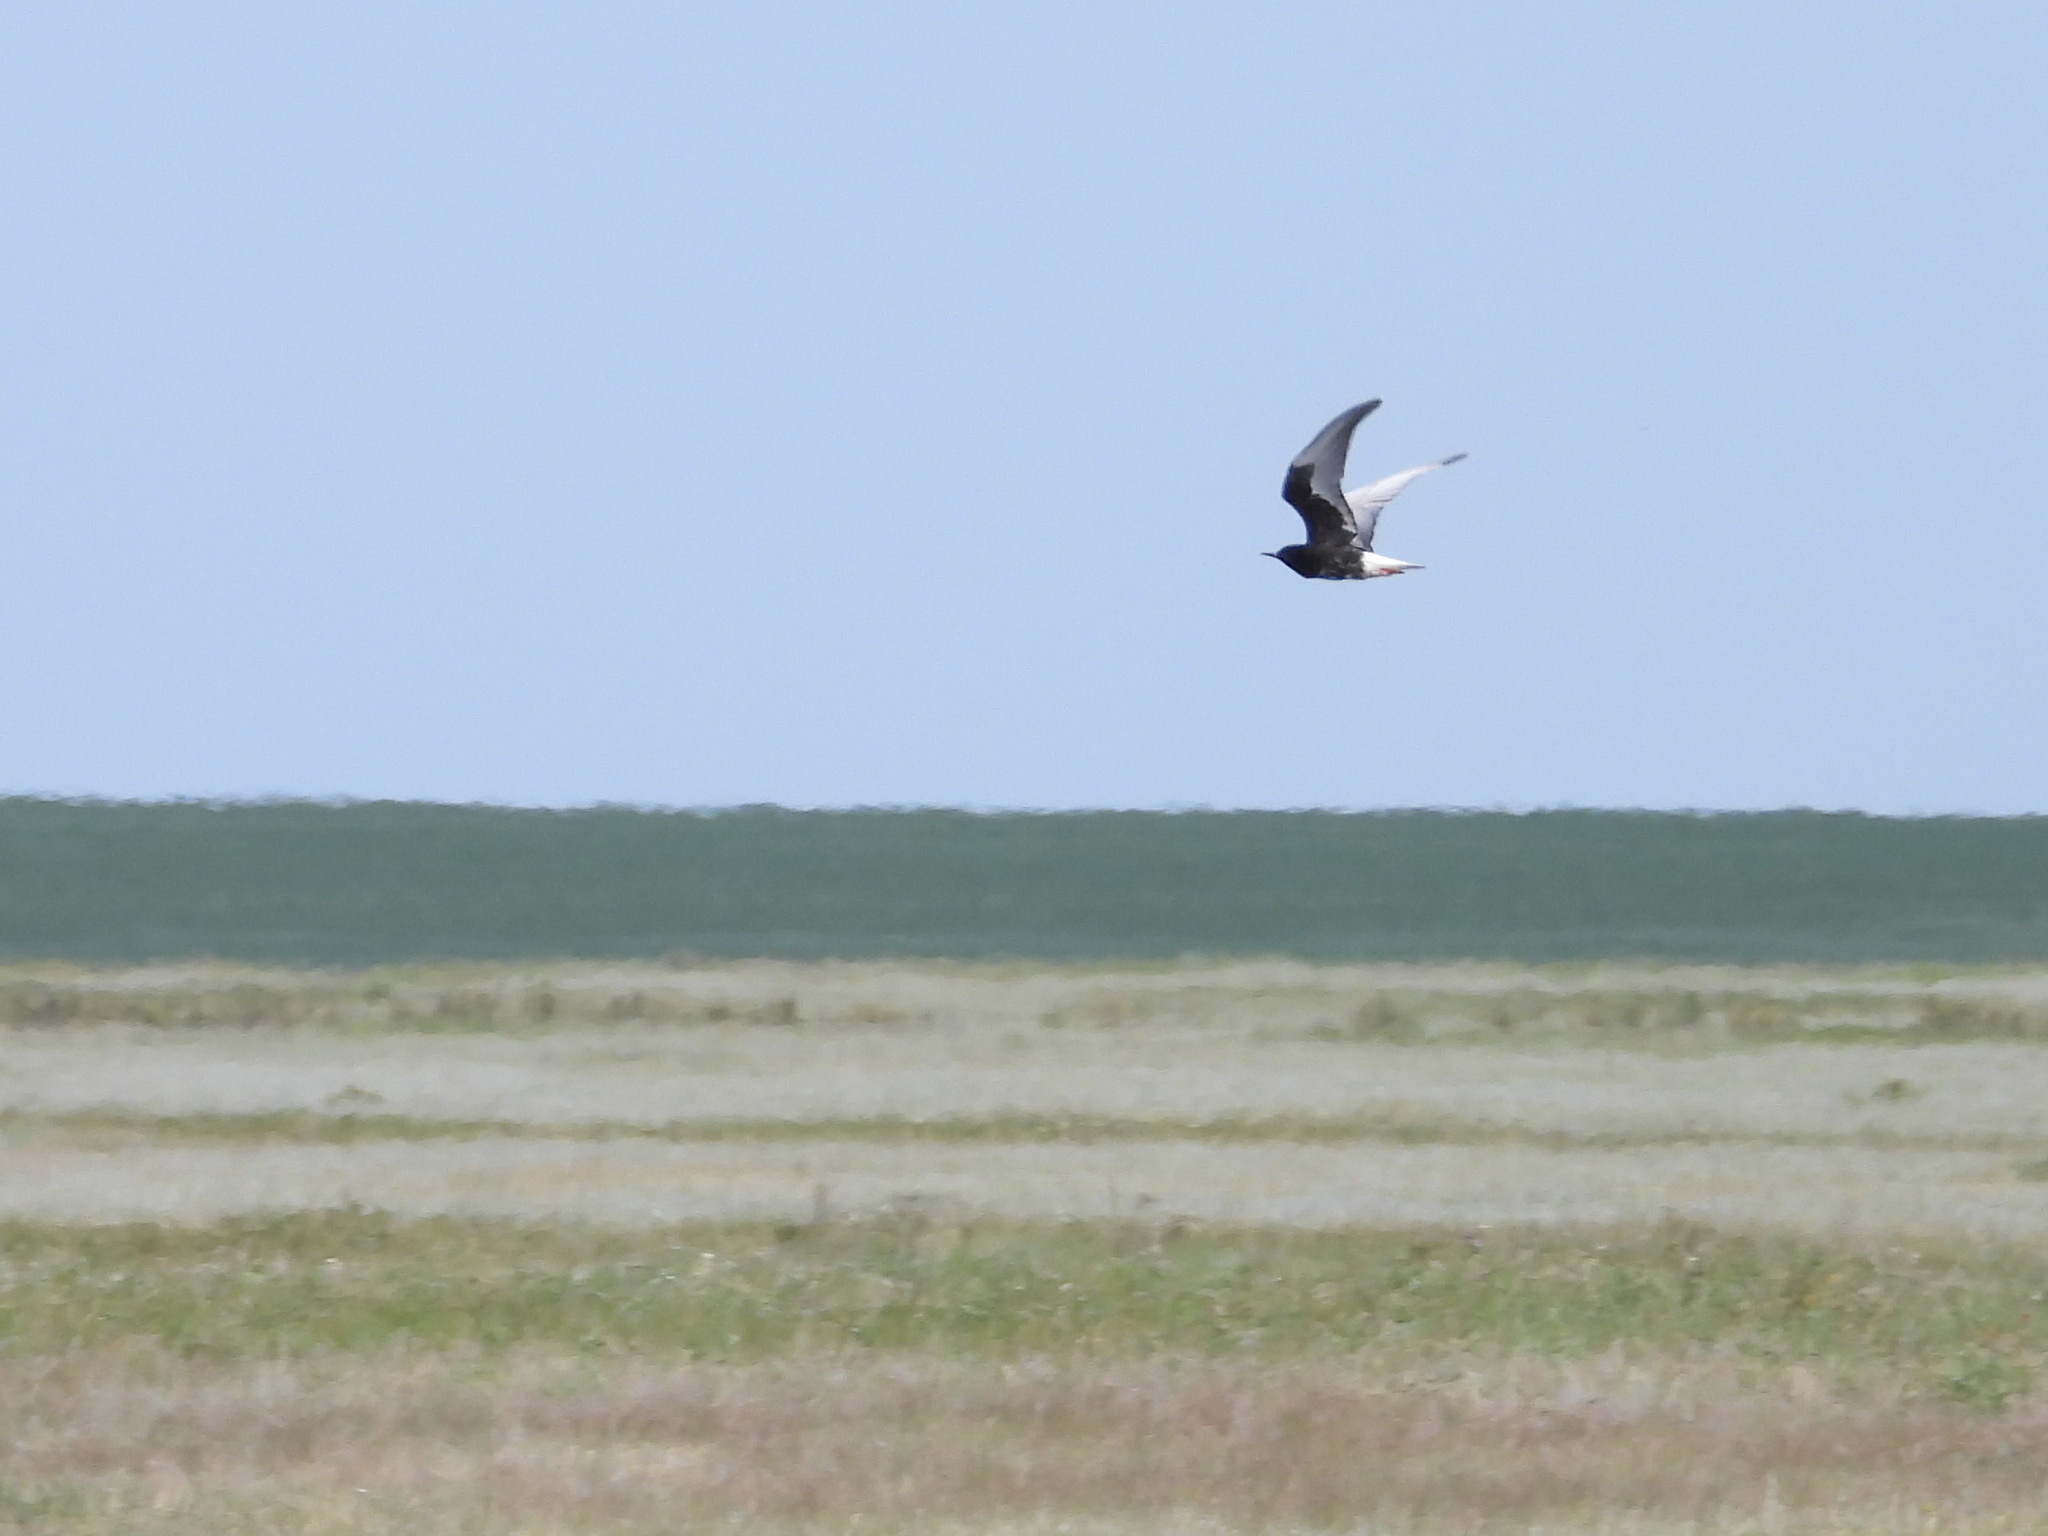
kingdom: Animalia
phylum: Chordata
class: Aves
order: Charadriiformes
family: Laridae
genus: Chlidonias
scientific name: Chlidonias leucopterus
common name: White-winged tern
